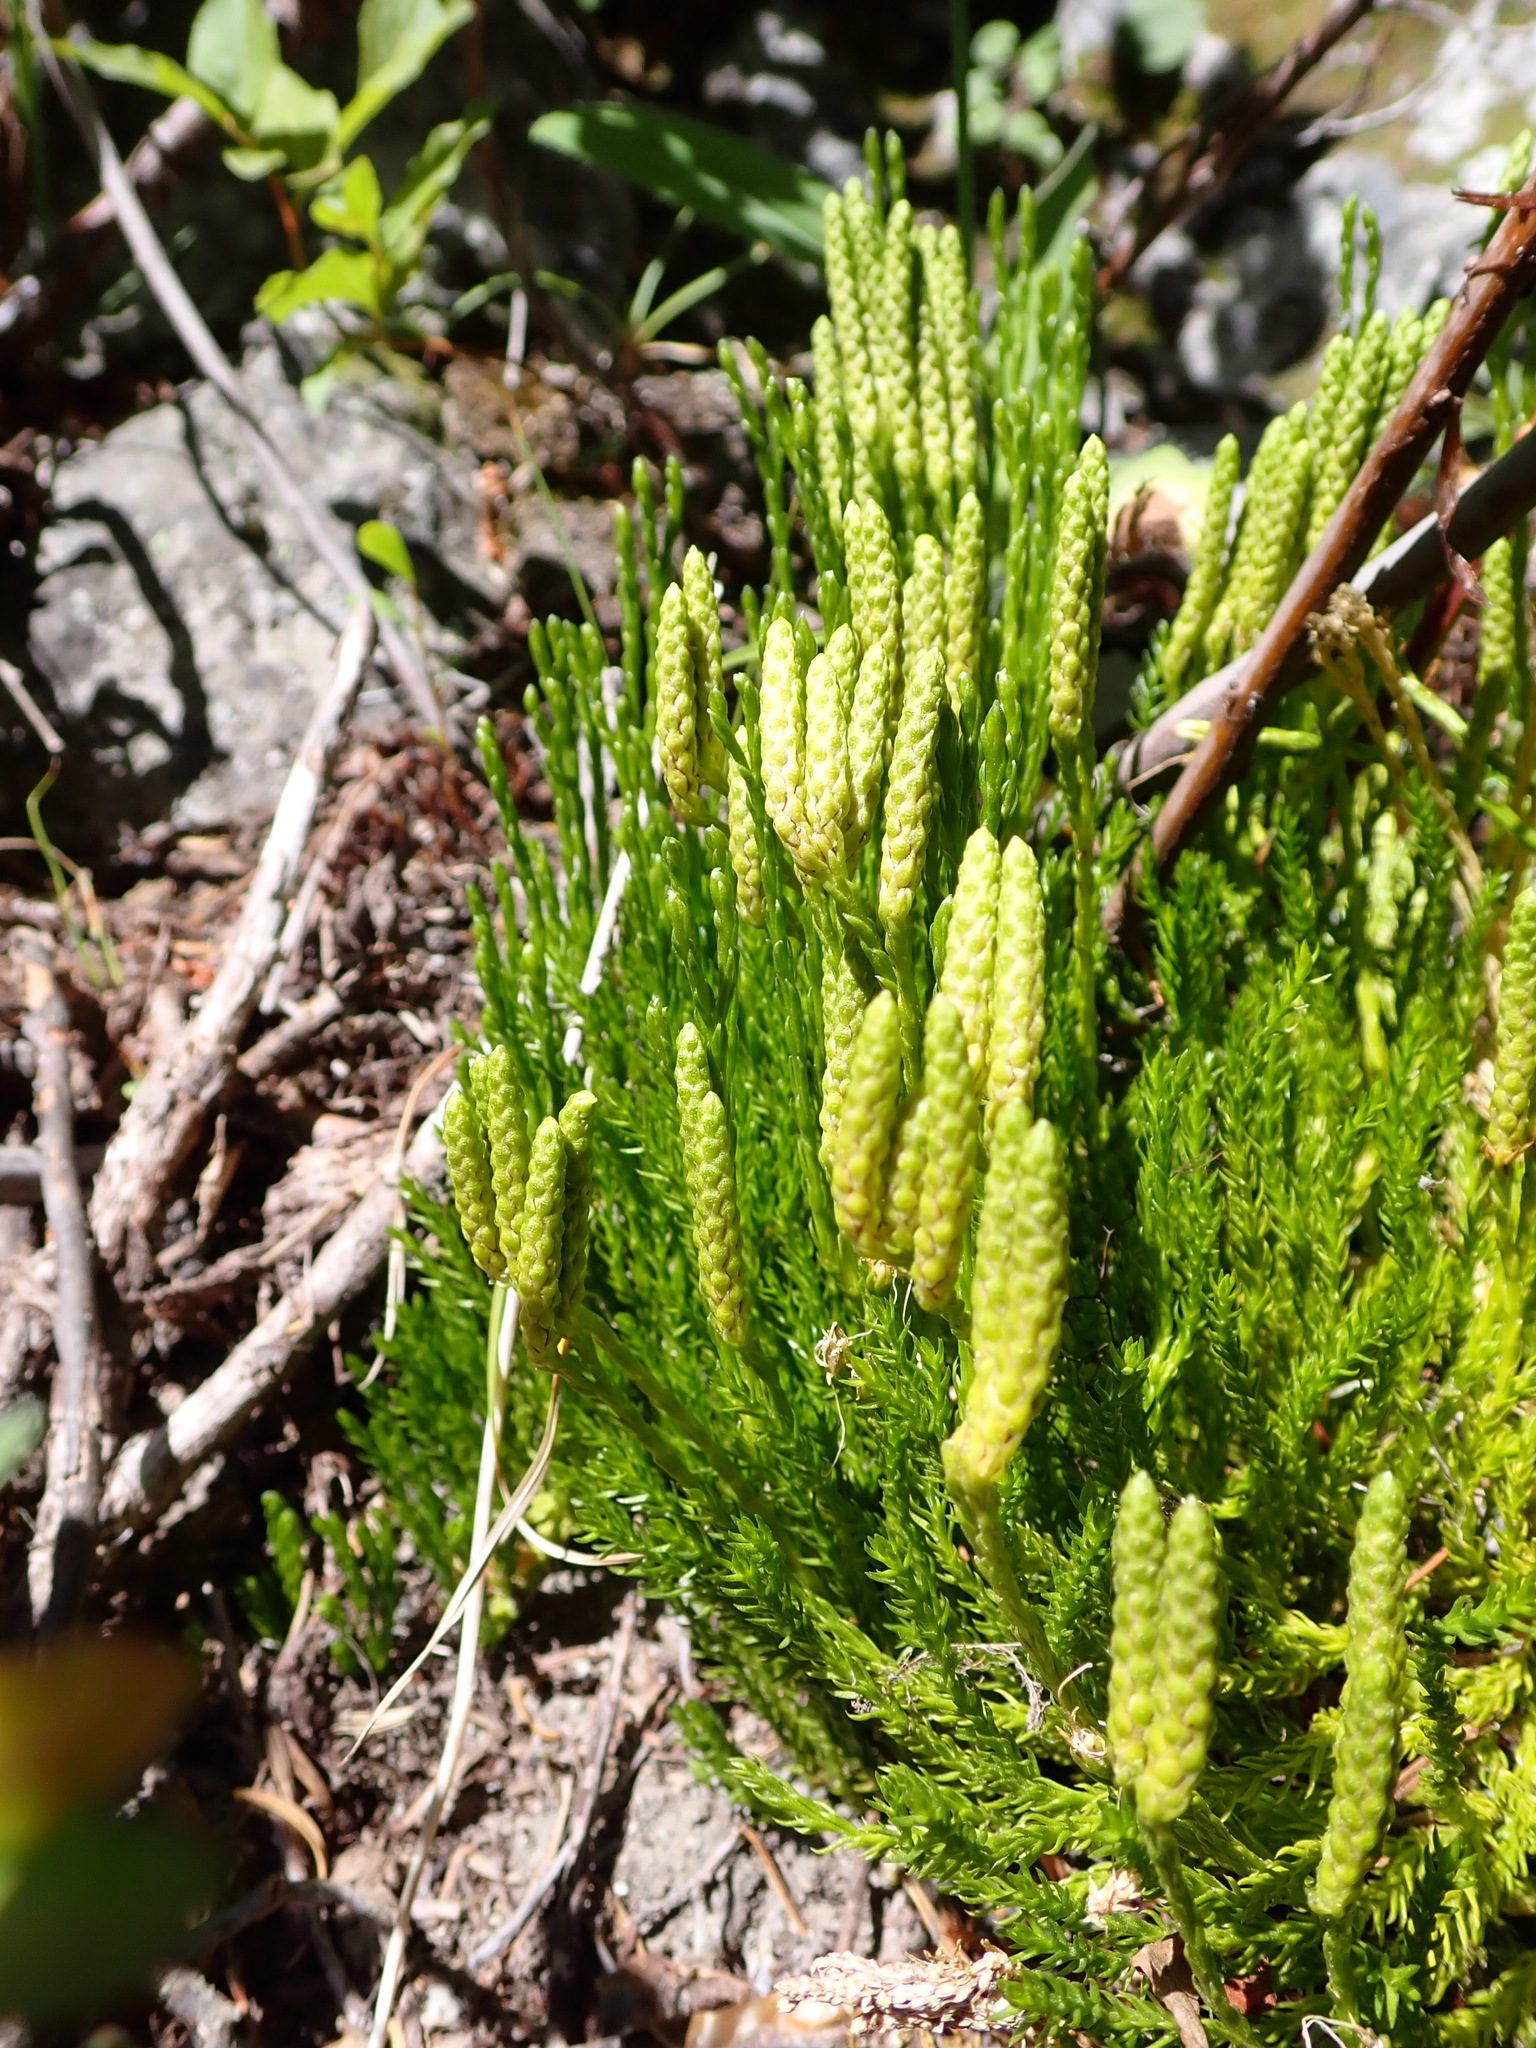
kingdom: Plantae
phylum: Tracheophyta
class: Lycopodiopsida
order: Lycopodiales
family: Lycopodiaceae
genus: Diphasiastrum
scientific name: Diphasiastrum sitchense
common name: Alaska clubmoss
